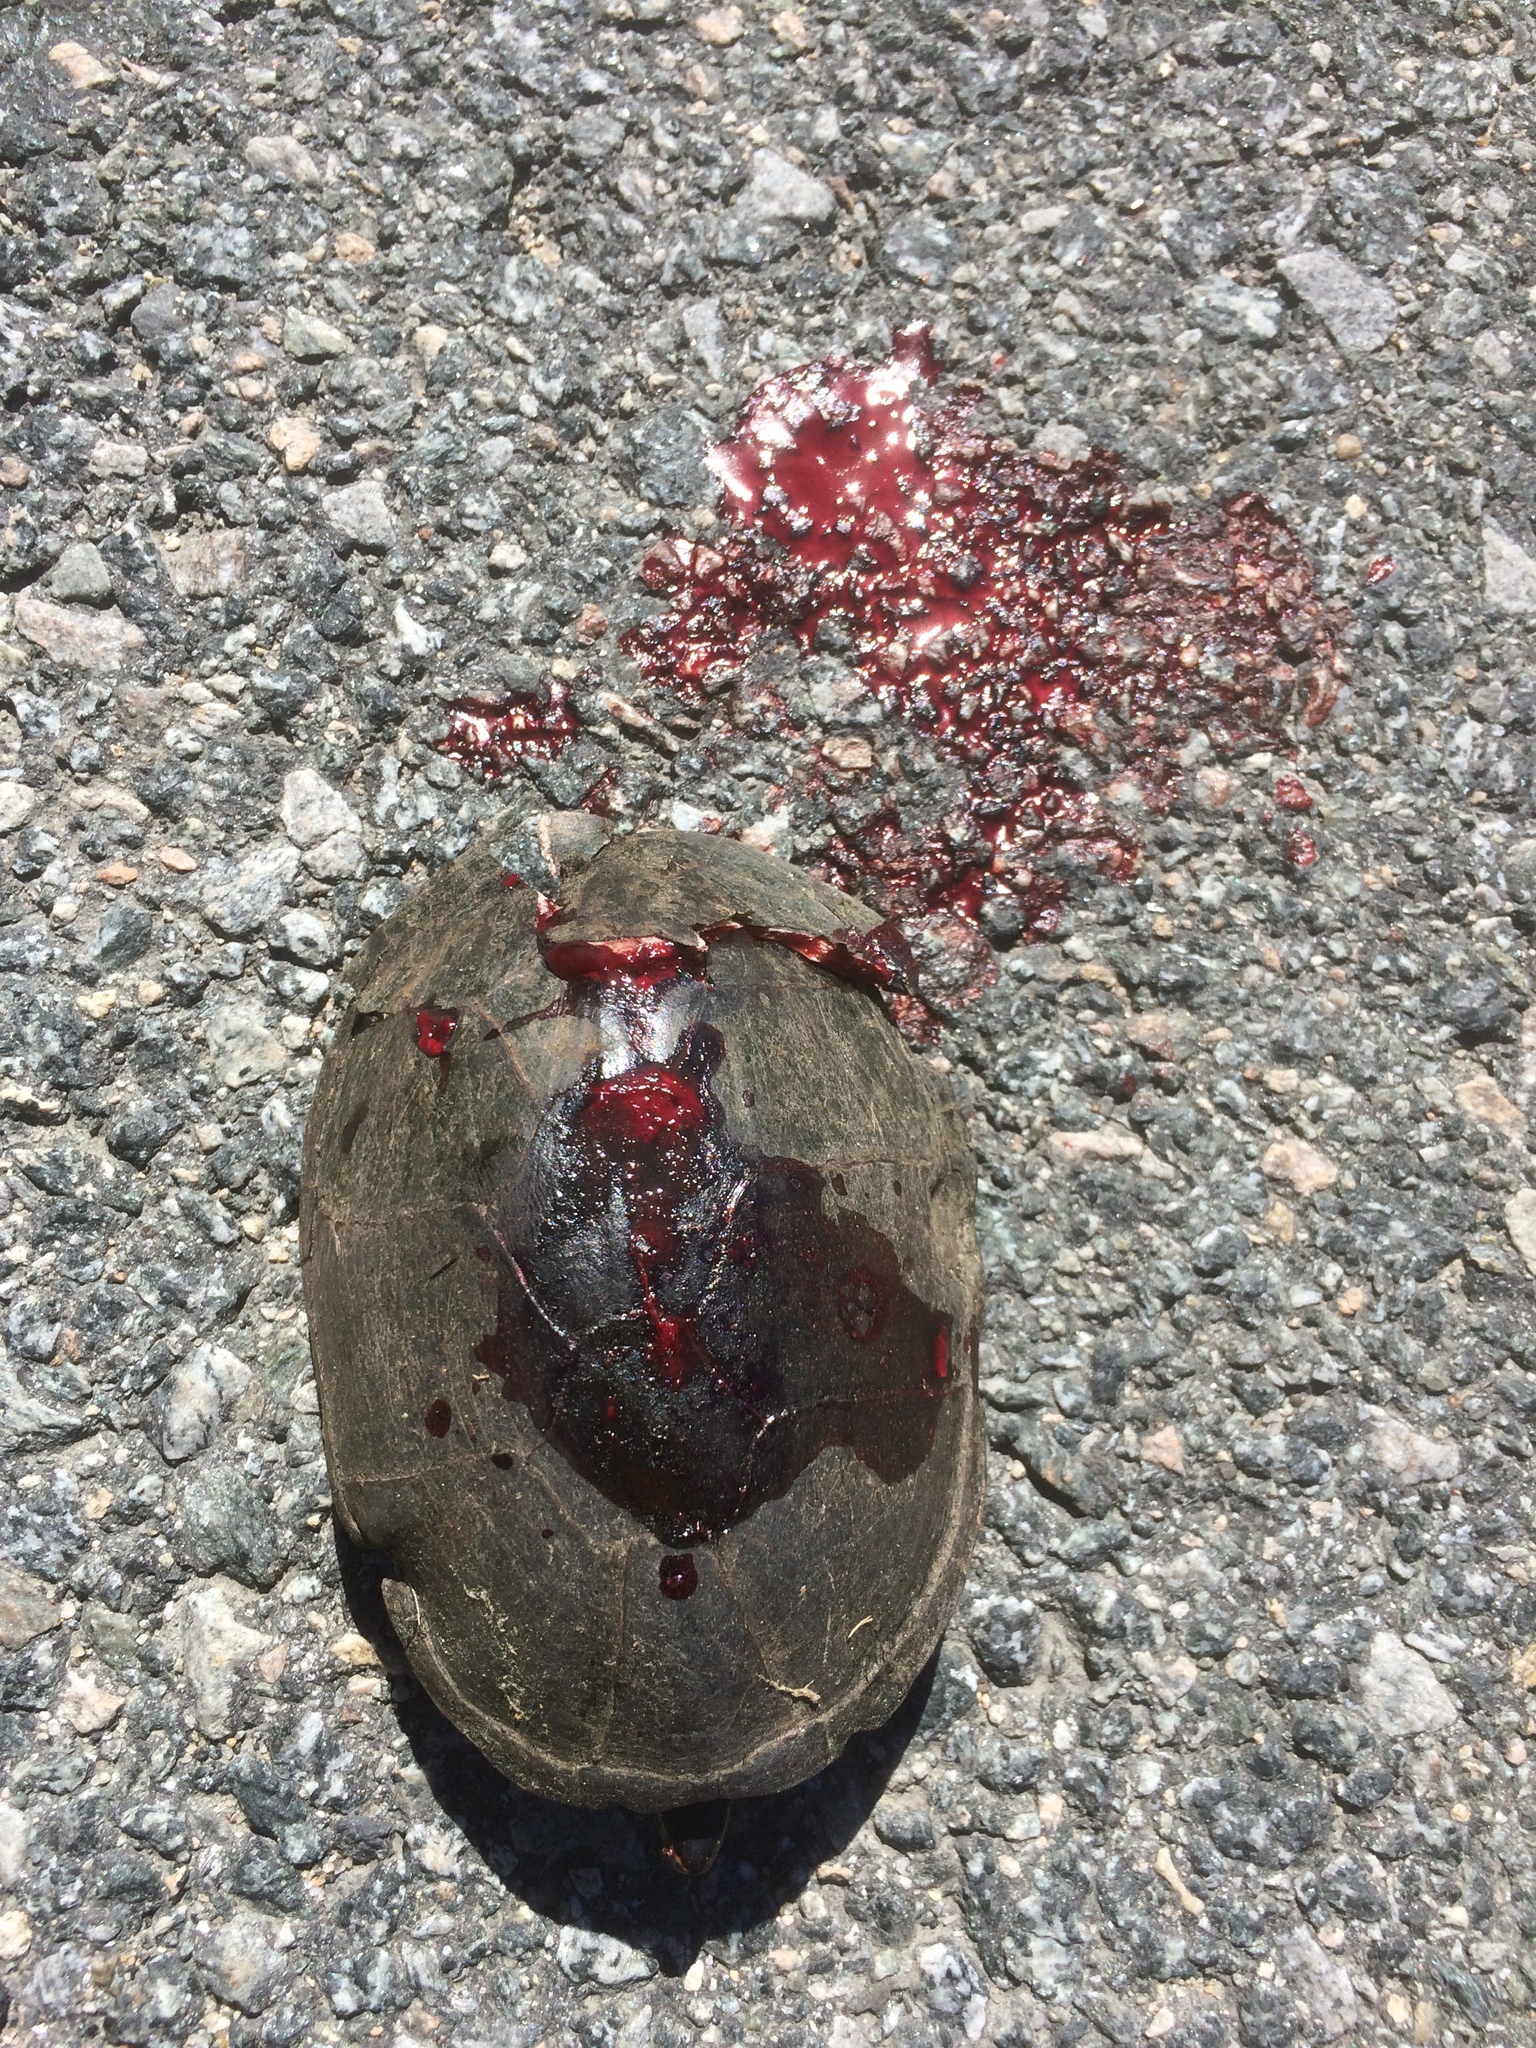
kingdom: Animalia
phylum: Chordata
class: Testudines
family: Kinosternidae
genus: Sternotherus
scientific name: Sternotherus odoratus
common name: Common musk turtle
